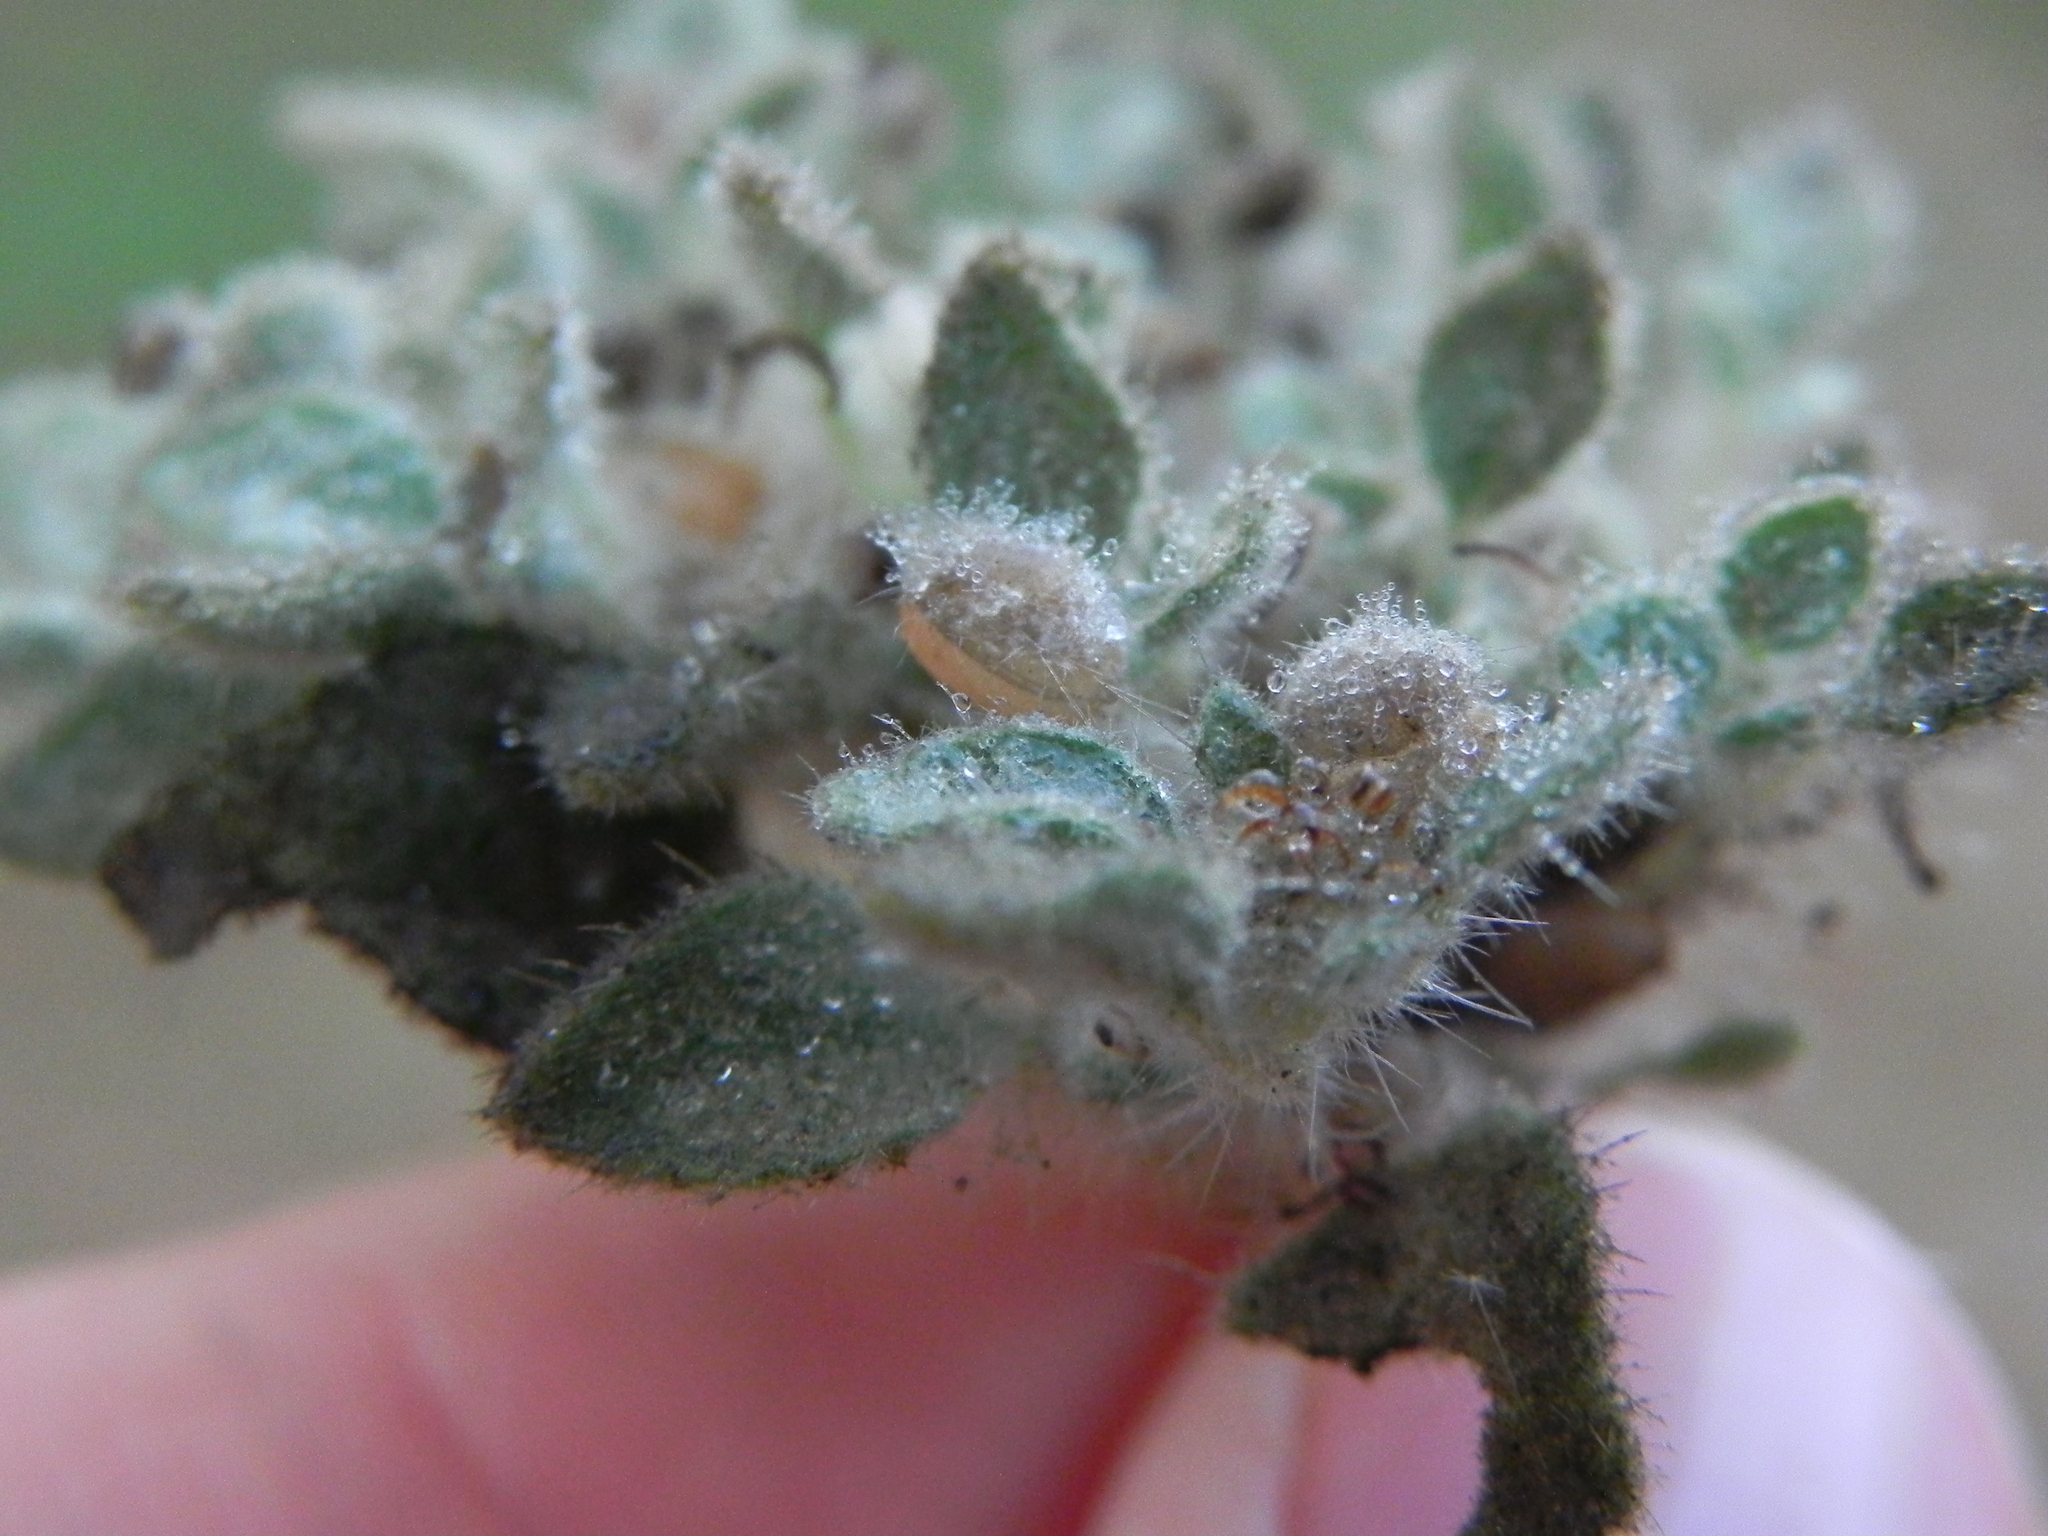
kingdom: Plantae
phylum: Tracheophyta
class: Magnoliopsida
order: Malpighiales
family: Euphorbiaceae
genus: Croton
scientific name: Croton setiger
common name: Dove weed
